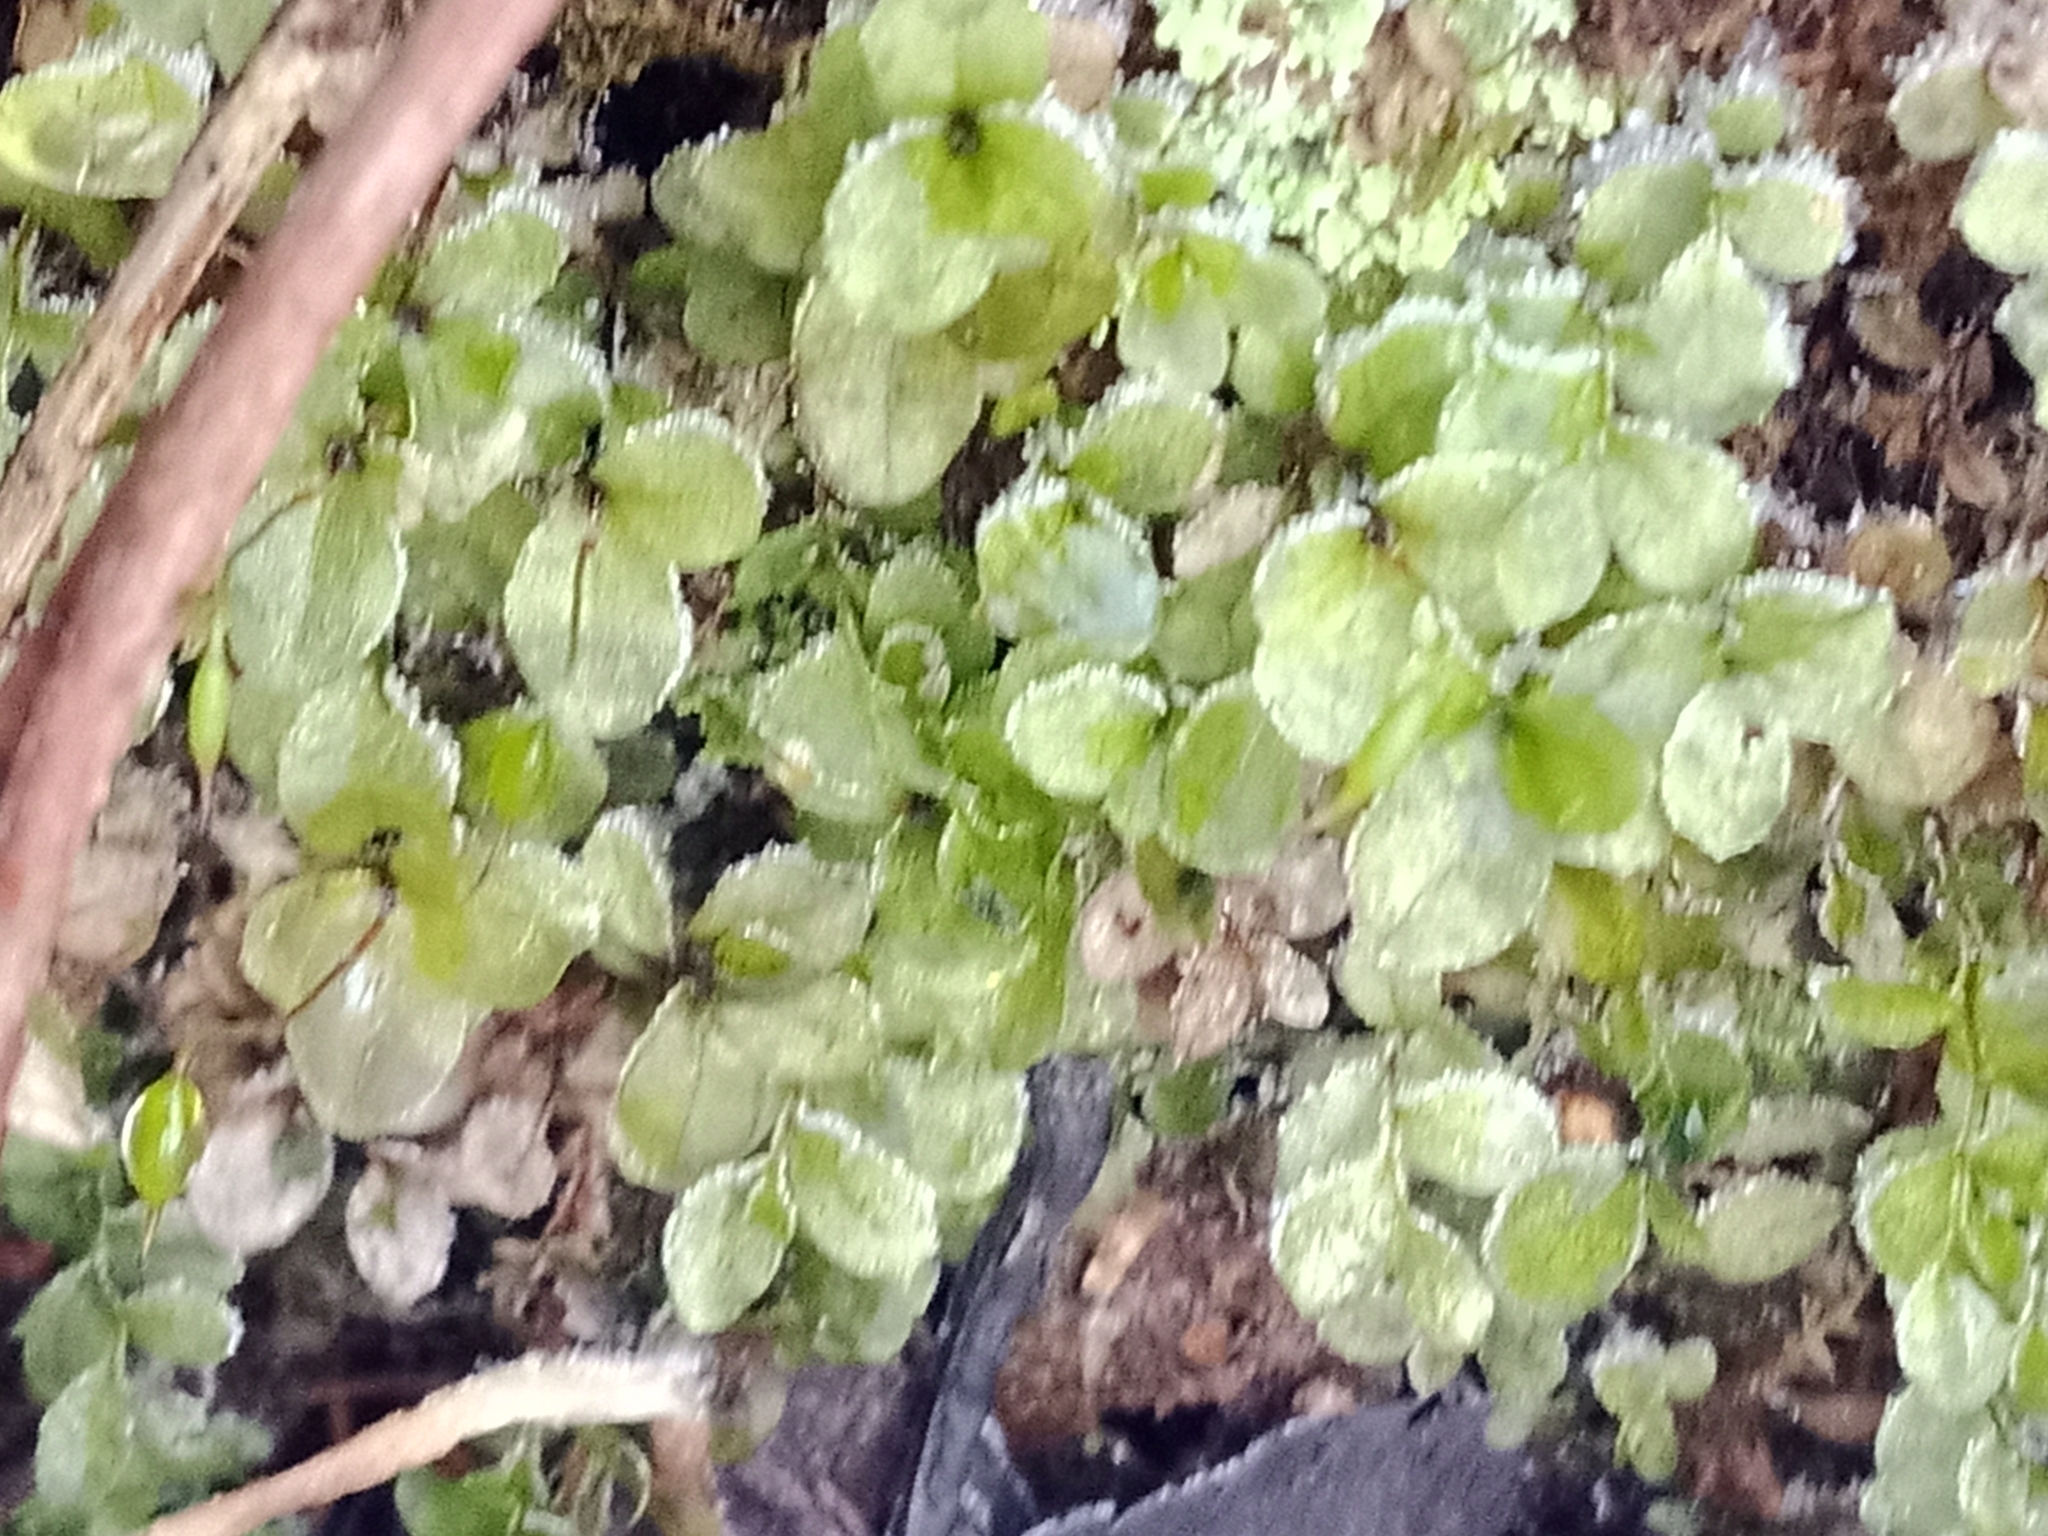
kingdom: Plantae
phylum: Bryophyta
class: Bryopsida
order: Bryales
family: Mniaceae
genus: Rhizomnium
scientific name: Rhizomnium punctatum
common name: Dotted leafy moss
